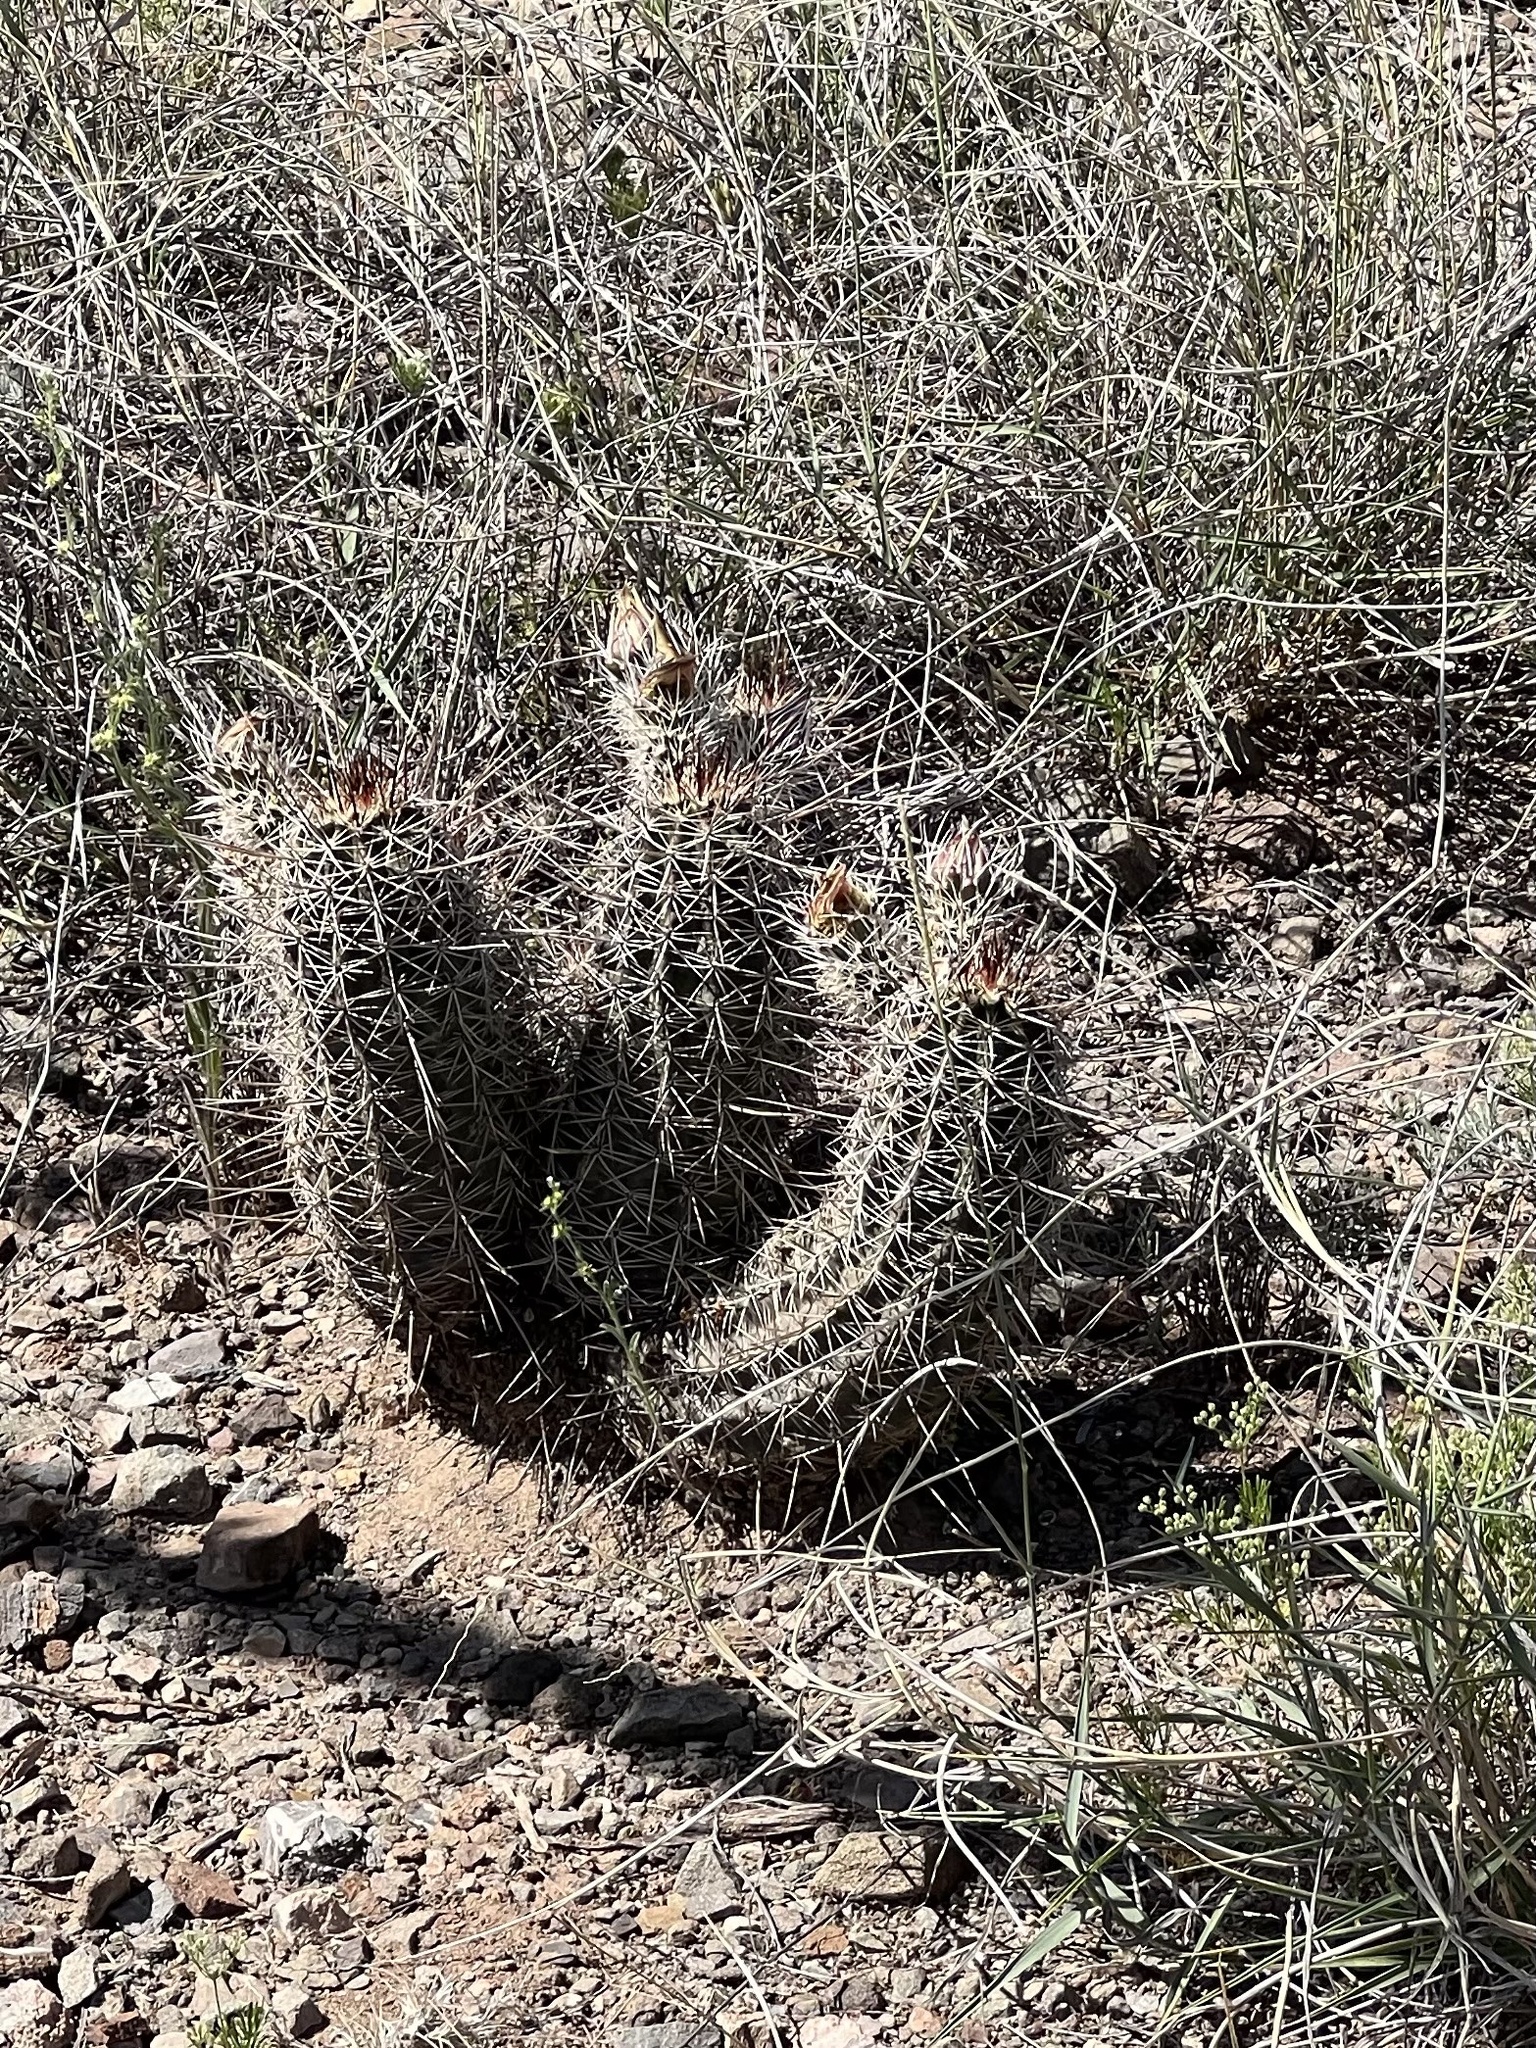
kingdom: Plantae
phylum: Tracheophyta
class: Magnoliopsida
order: Caryophyllales
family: Cactaceae
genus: Echinocereus
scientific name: Echinocereus fasciculatus
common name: Bundle hedgehog
